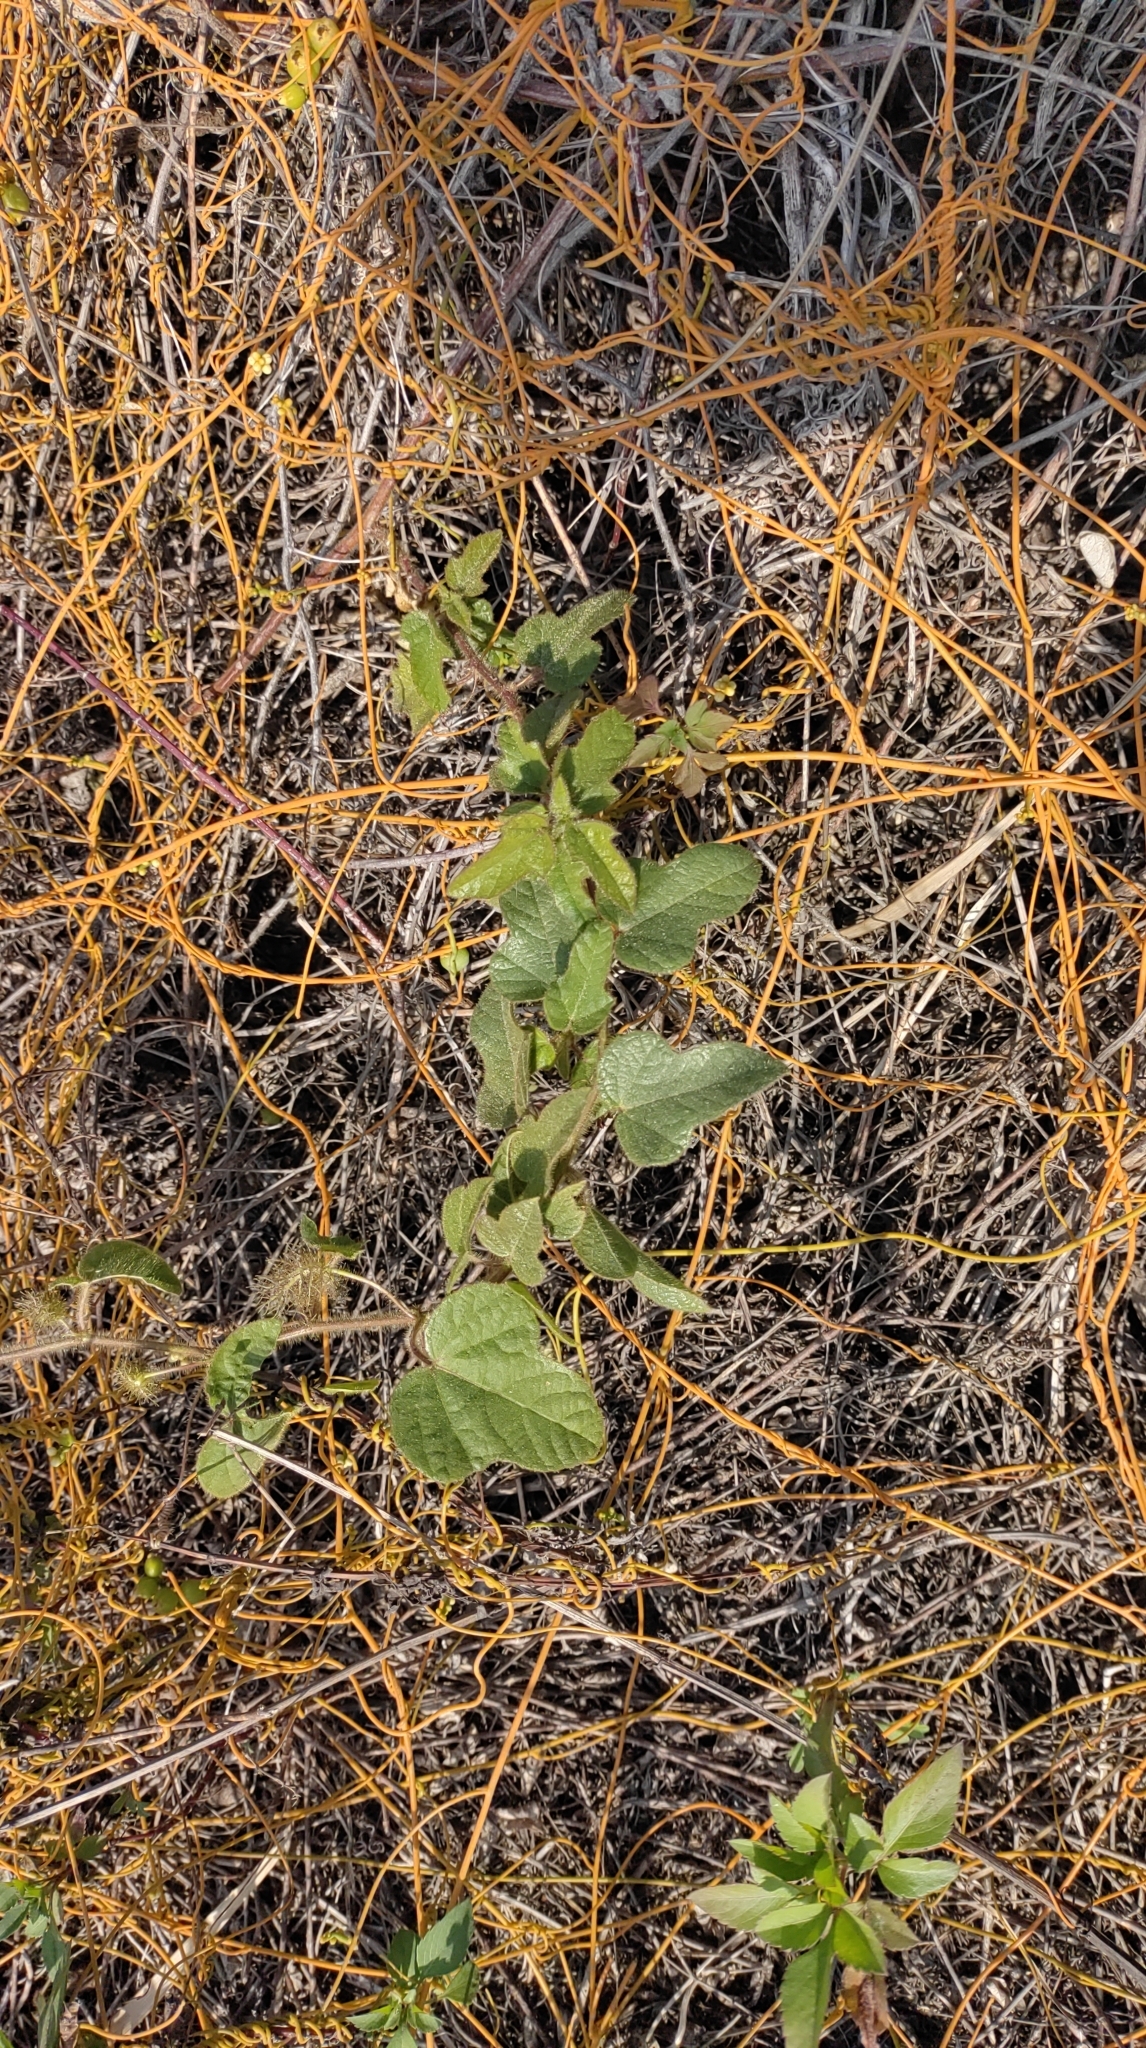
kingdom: Plantae
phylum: Tracheophyta
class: Magnoliopsida
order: Malpighiales
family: Passifloraceae
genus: Passiflora
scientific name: Passiflora vesicaria
